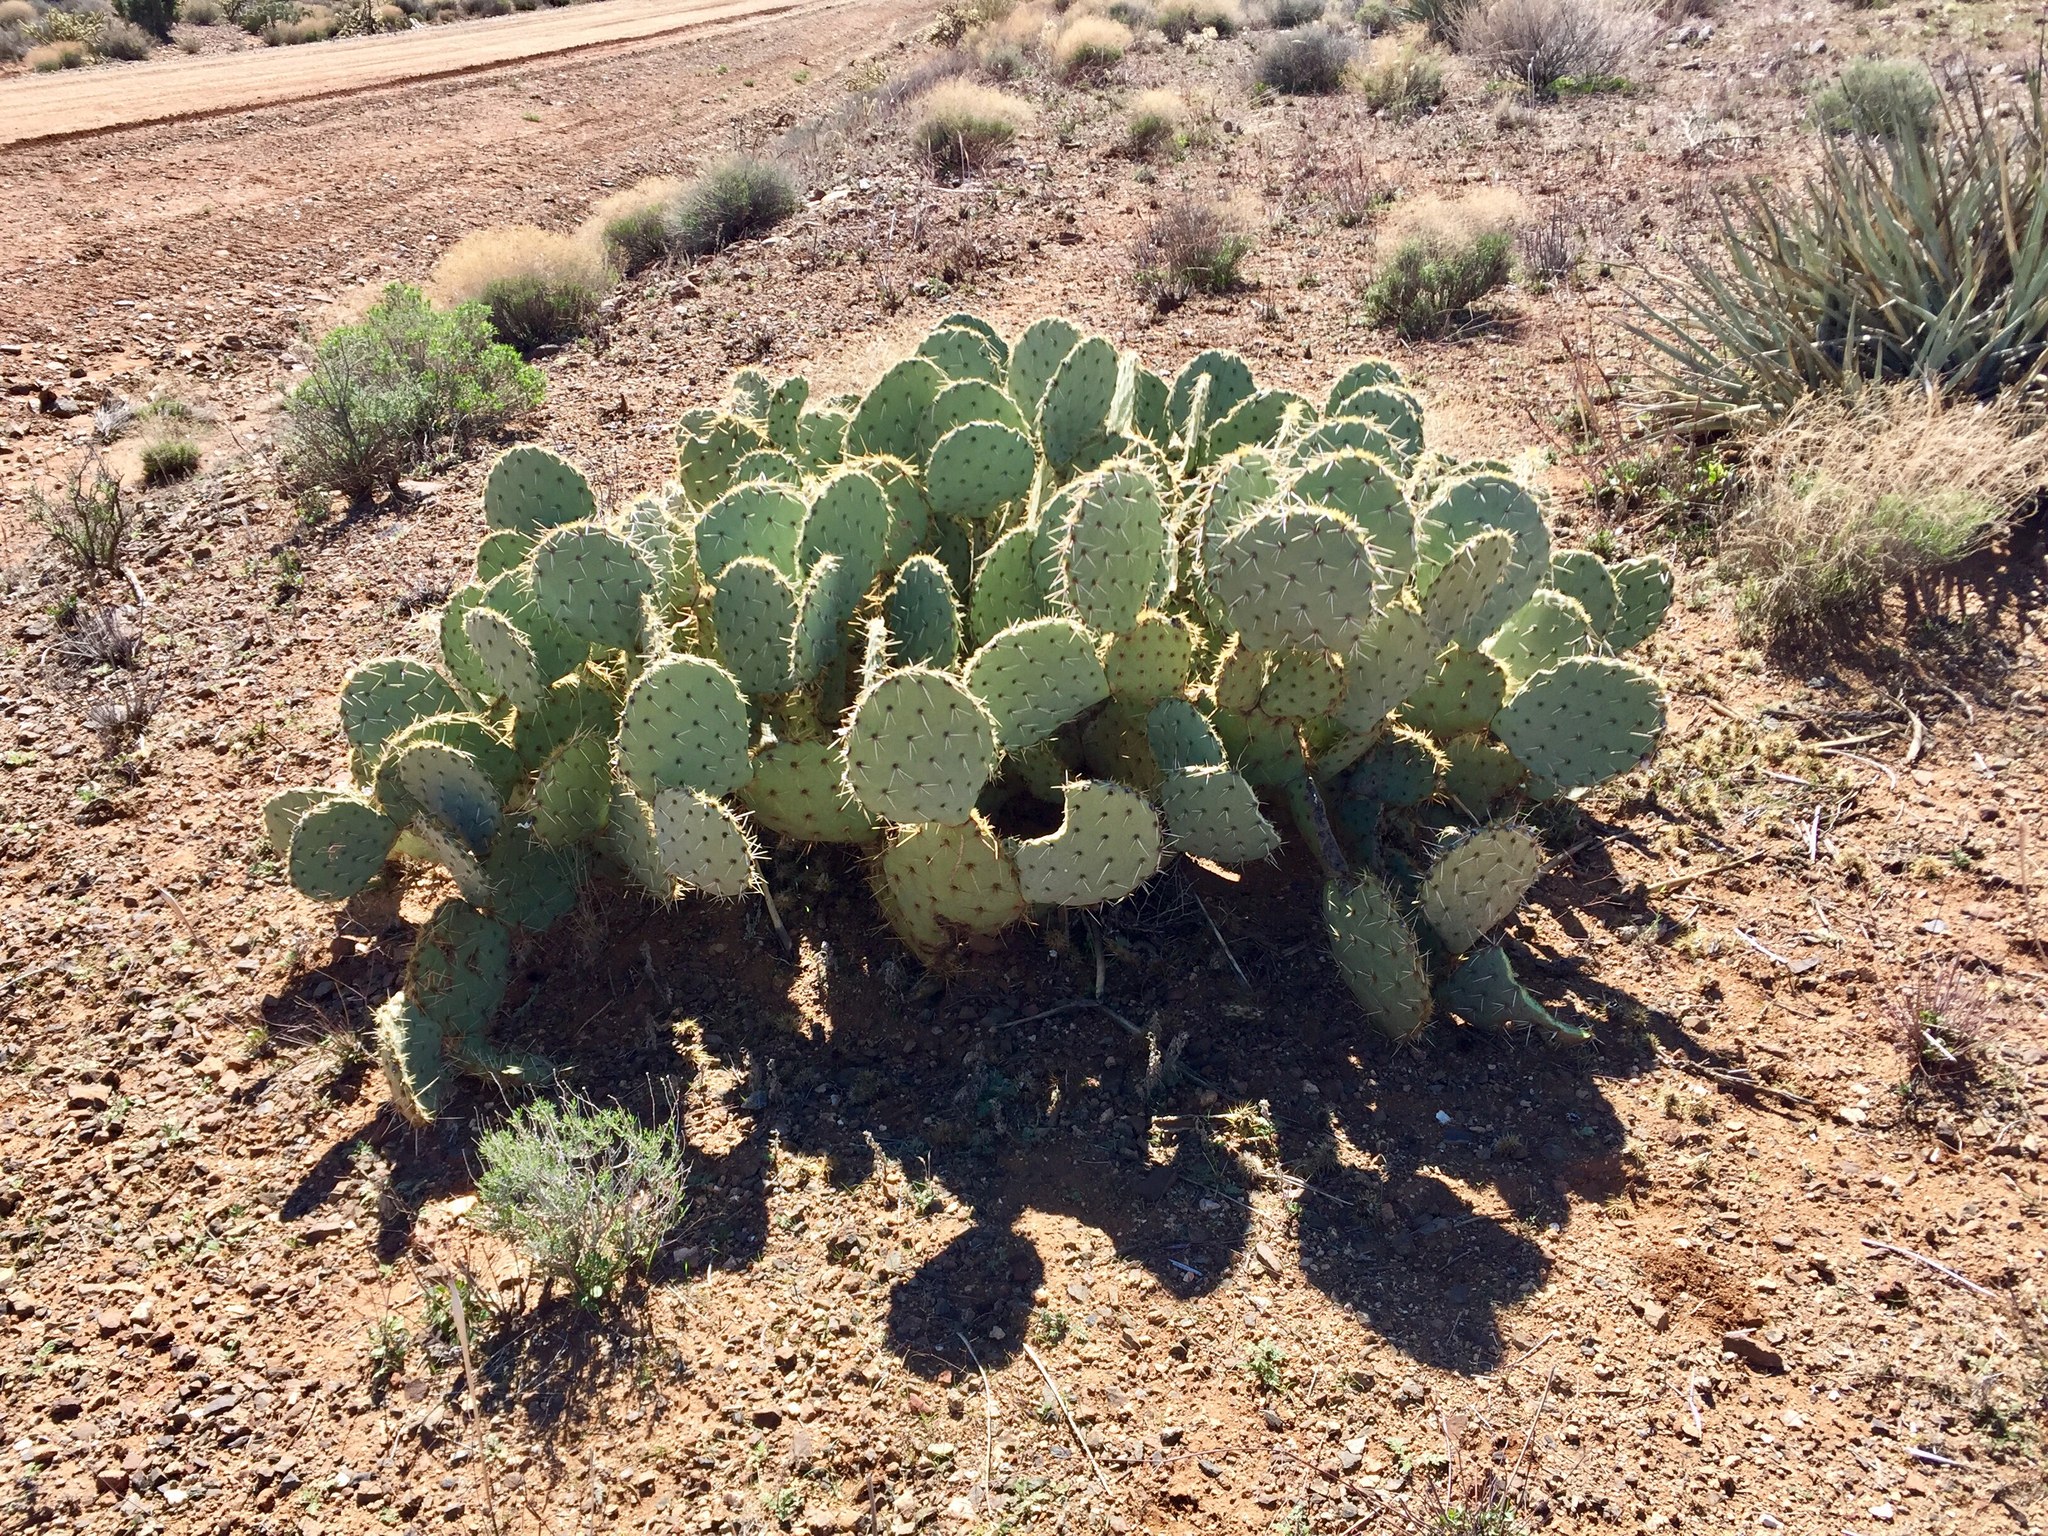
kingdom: Plantae
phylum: Tracheophyta
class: Magnoliopsida
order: Caryophyllales
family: Cactaceae
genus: Opuntia
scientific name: Opuntia chlorotica
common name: Dollar-joint prickly-pear
